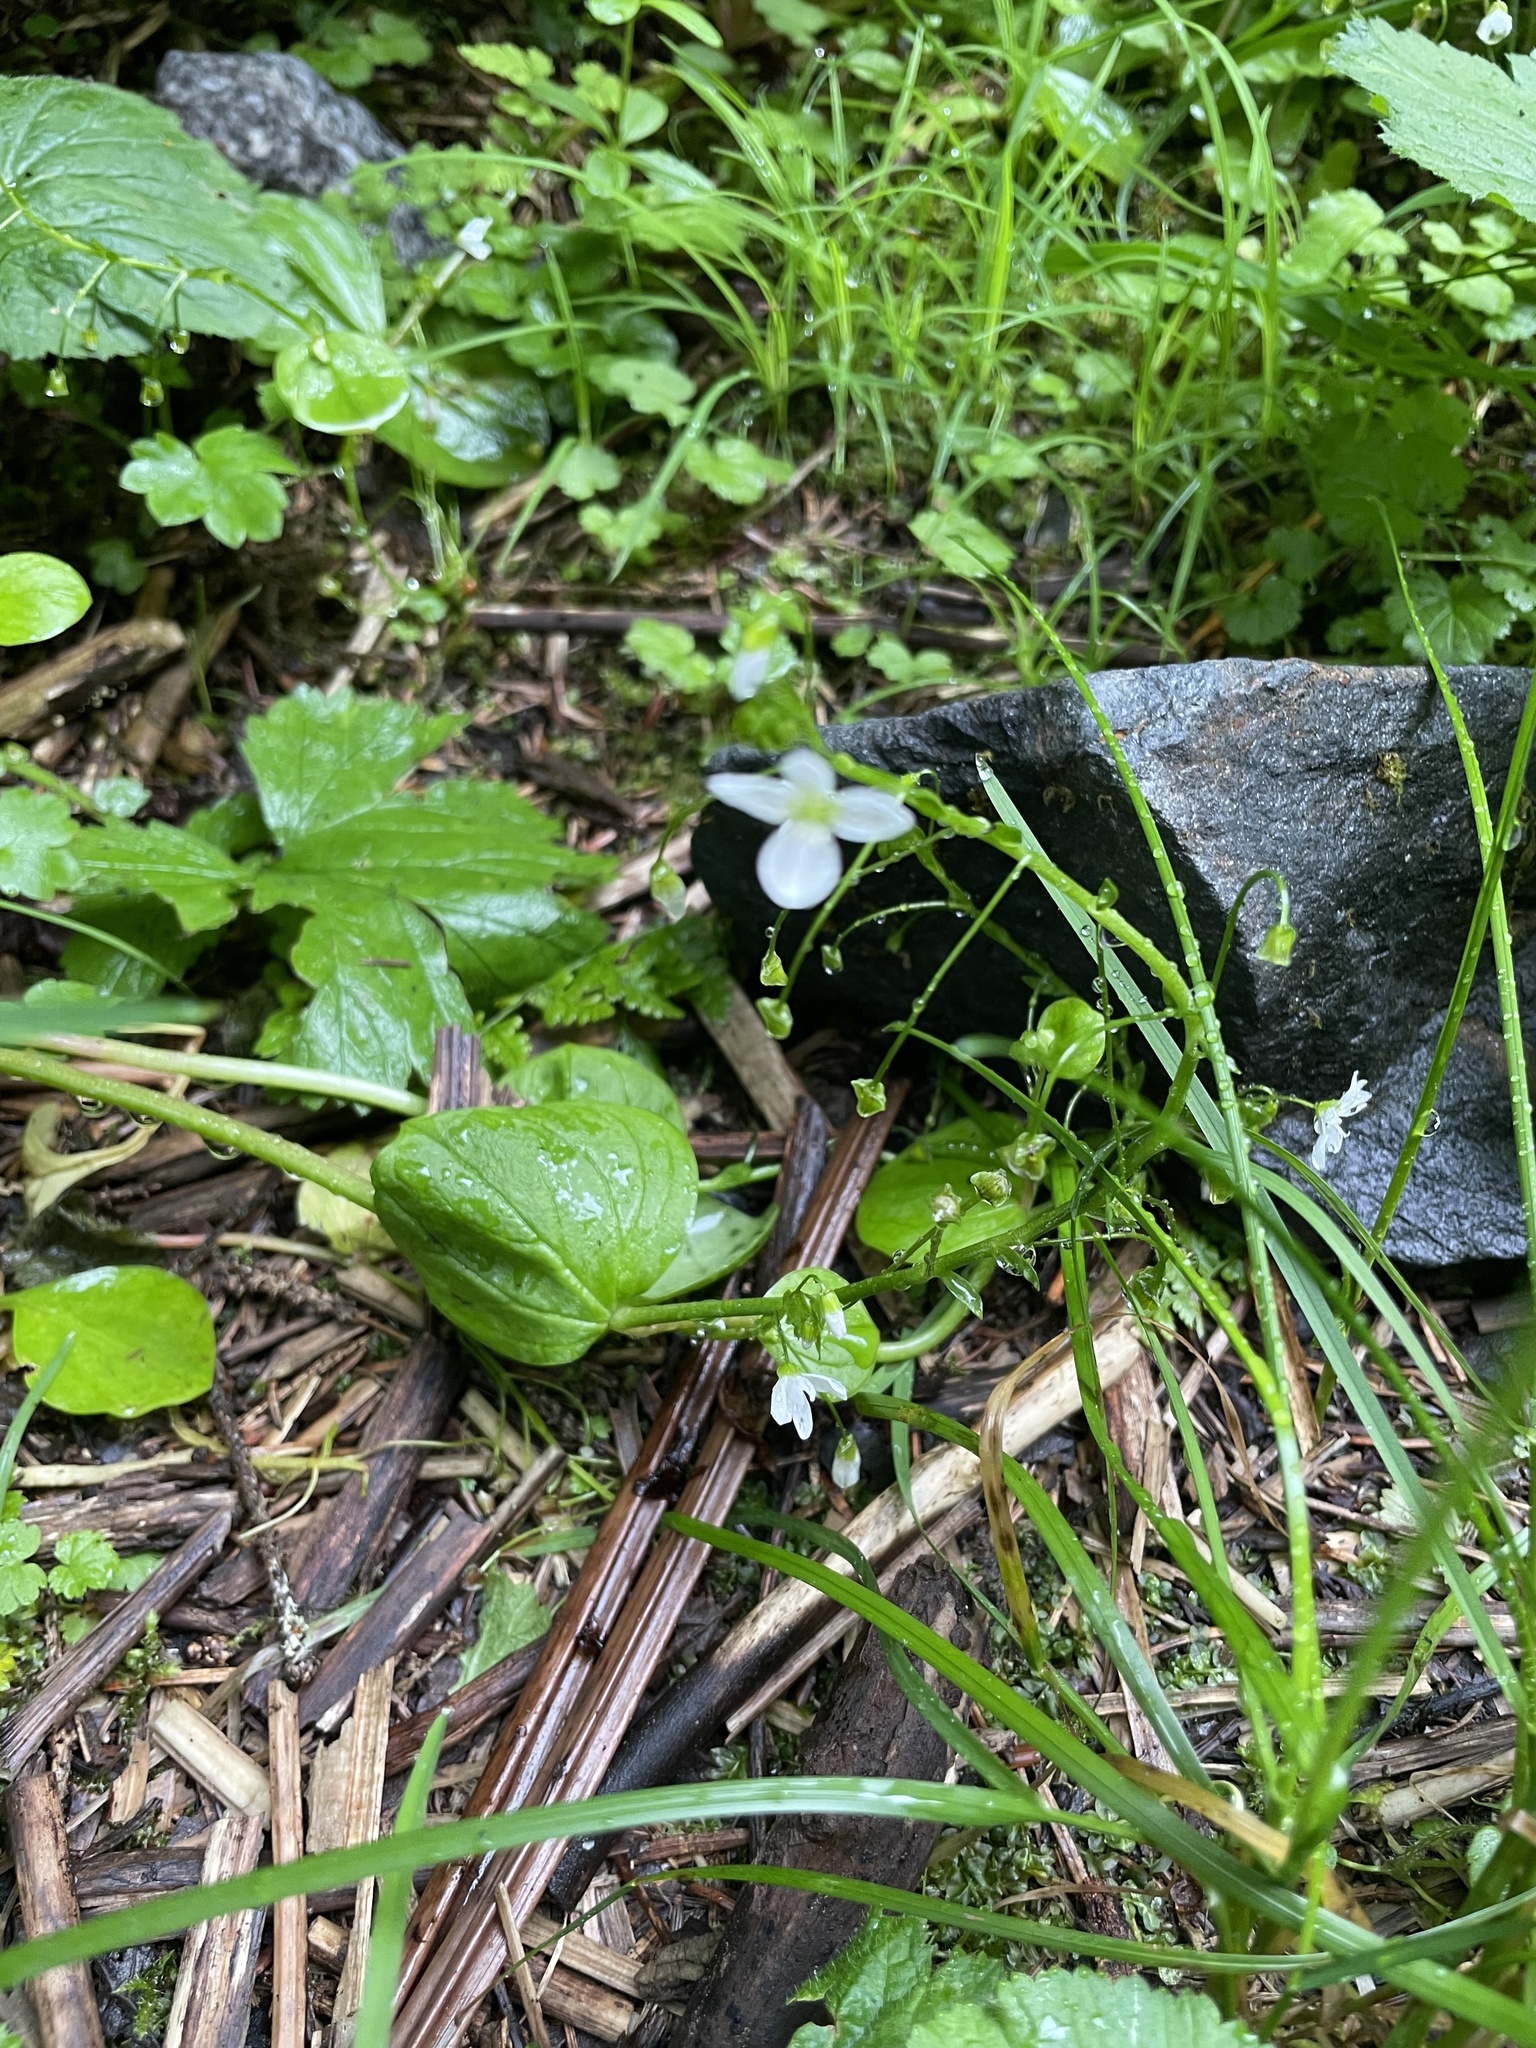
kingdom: Plantae
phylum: Tracheophyta
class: Magnoliopsida
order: Caryophyllales
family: Montiaceae
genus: Claytonia
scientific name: Claytonia sibirica
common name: Pink purslane
